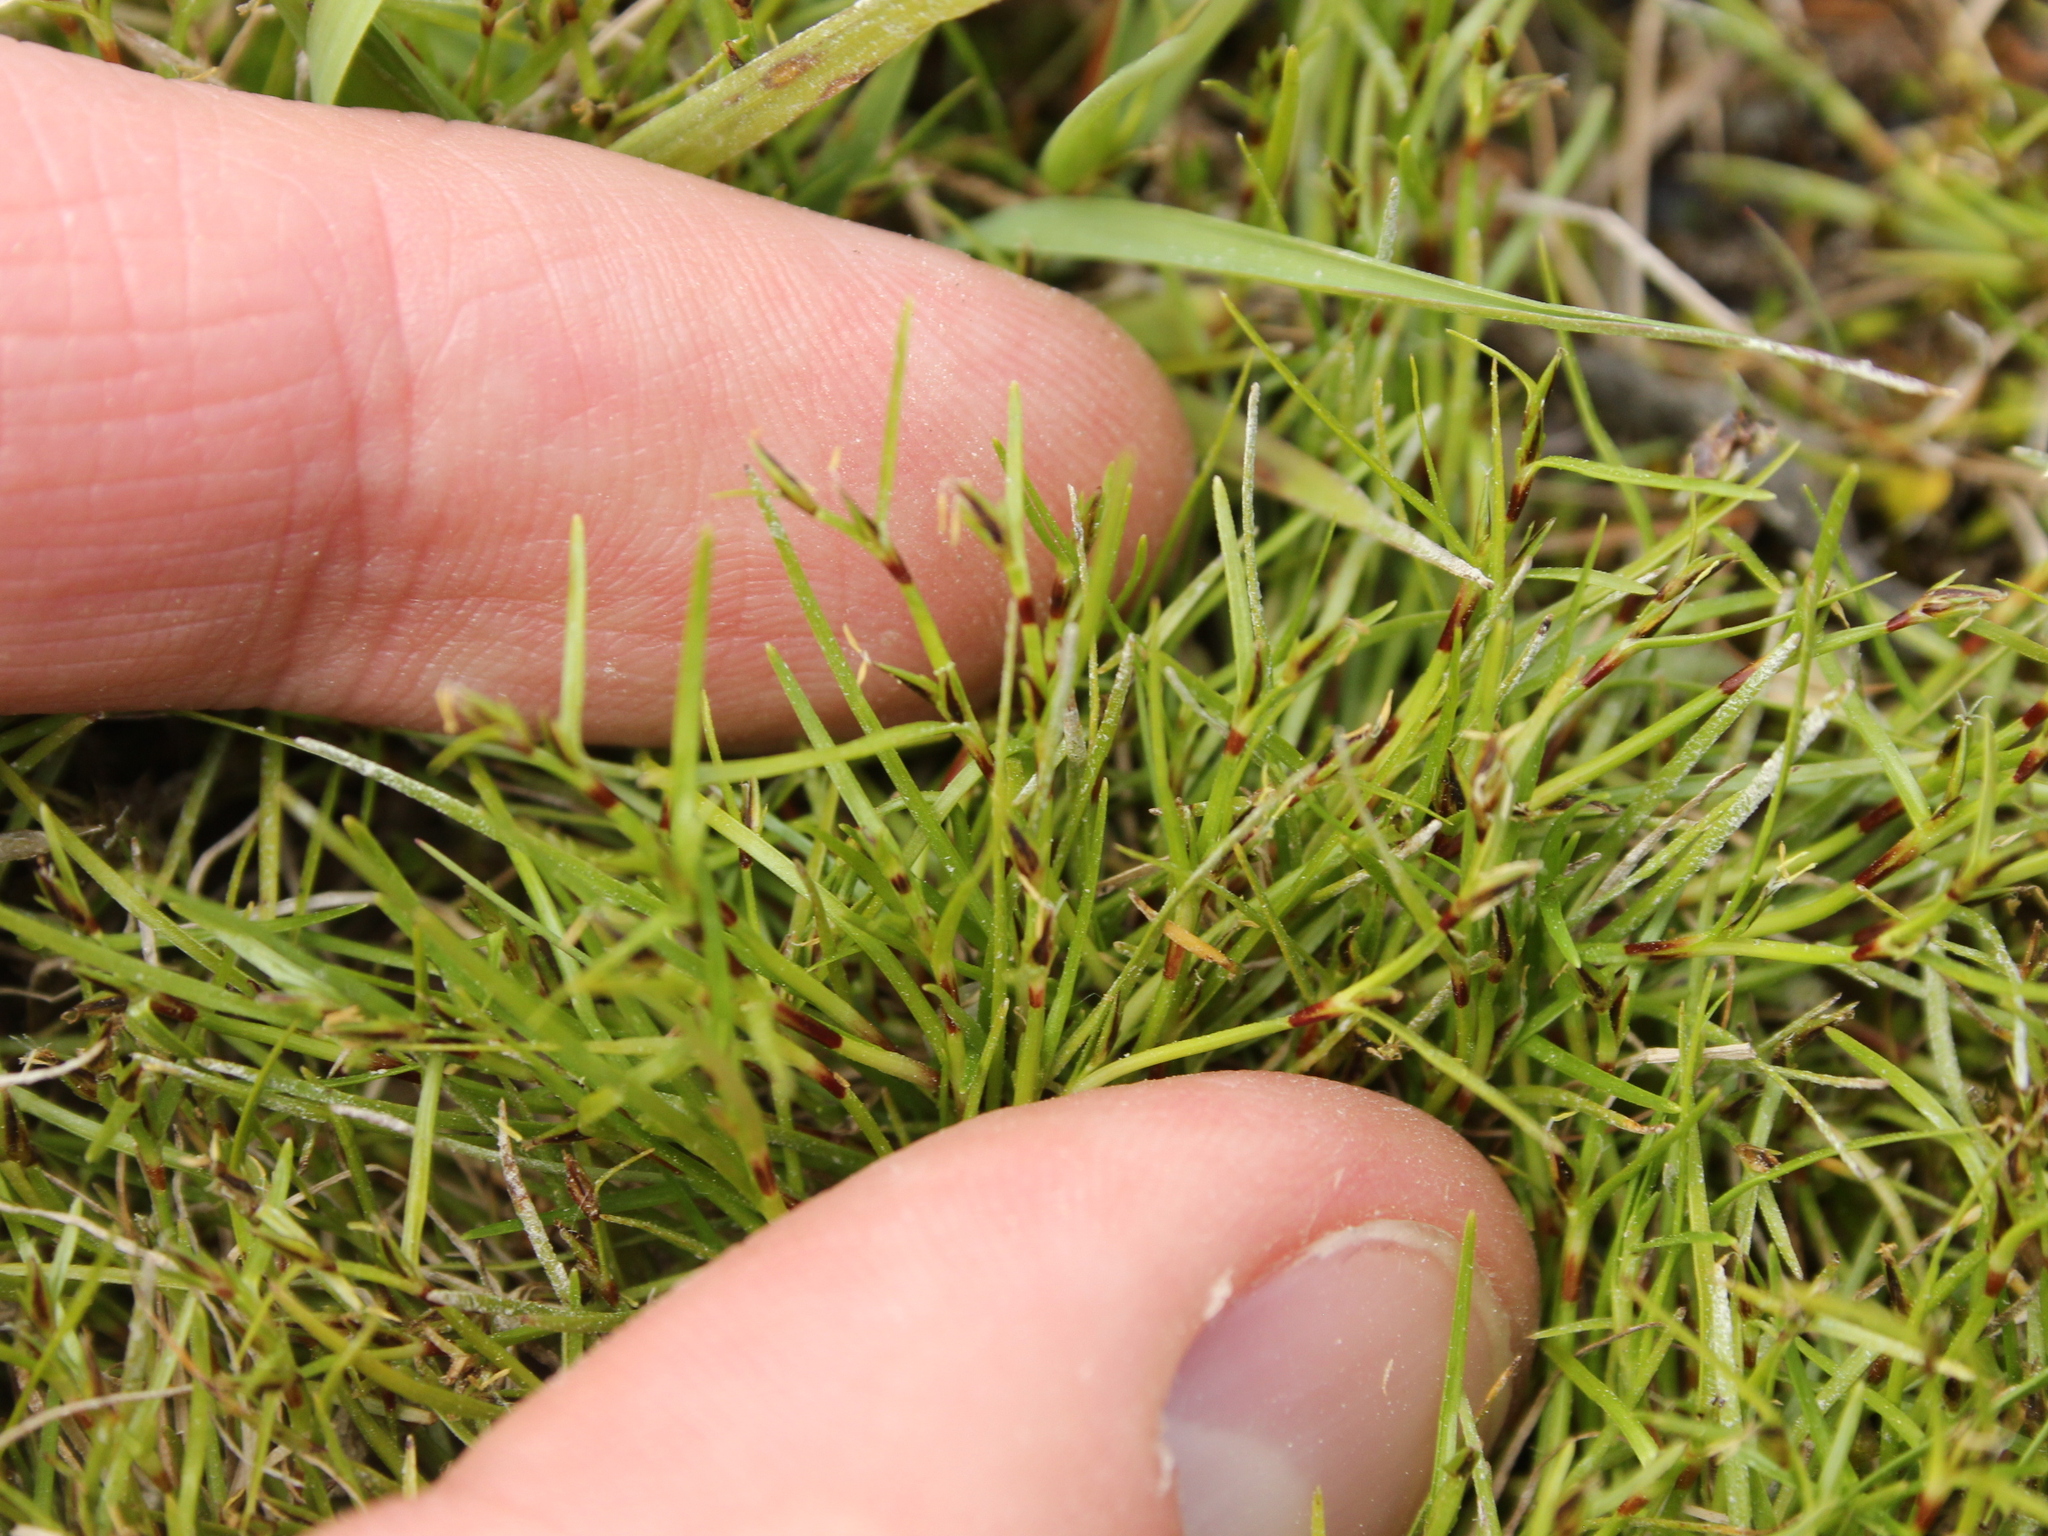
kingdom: Plantae
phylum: Tracheophyta
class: Liliopsida
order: Poales
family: Cyperaceae
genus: Schoenus
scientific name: Schoenus maschalinus
